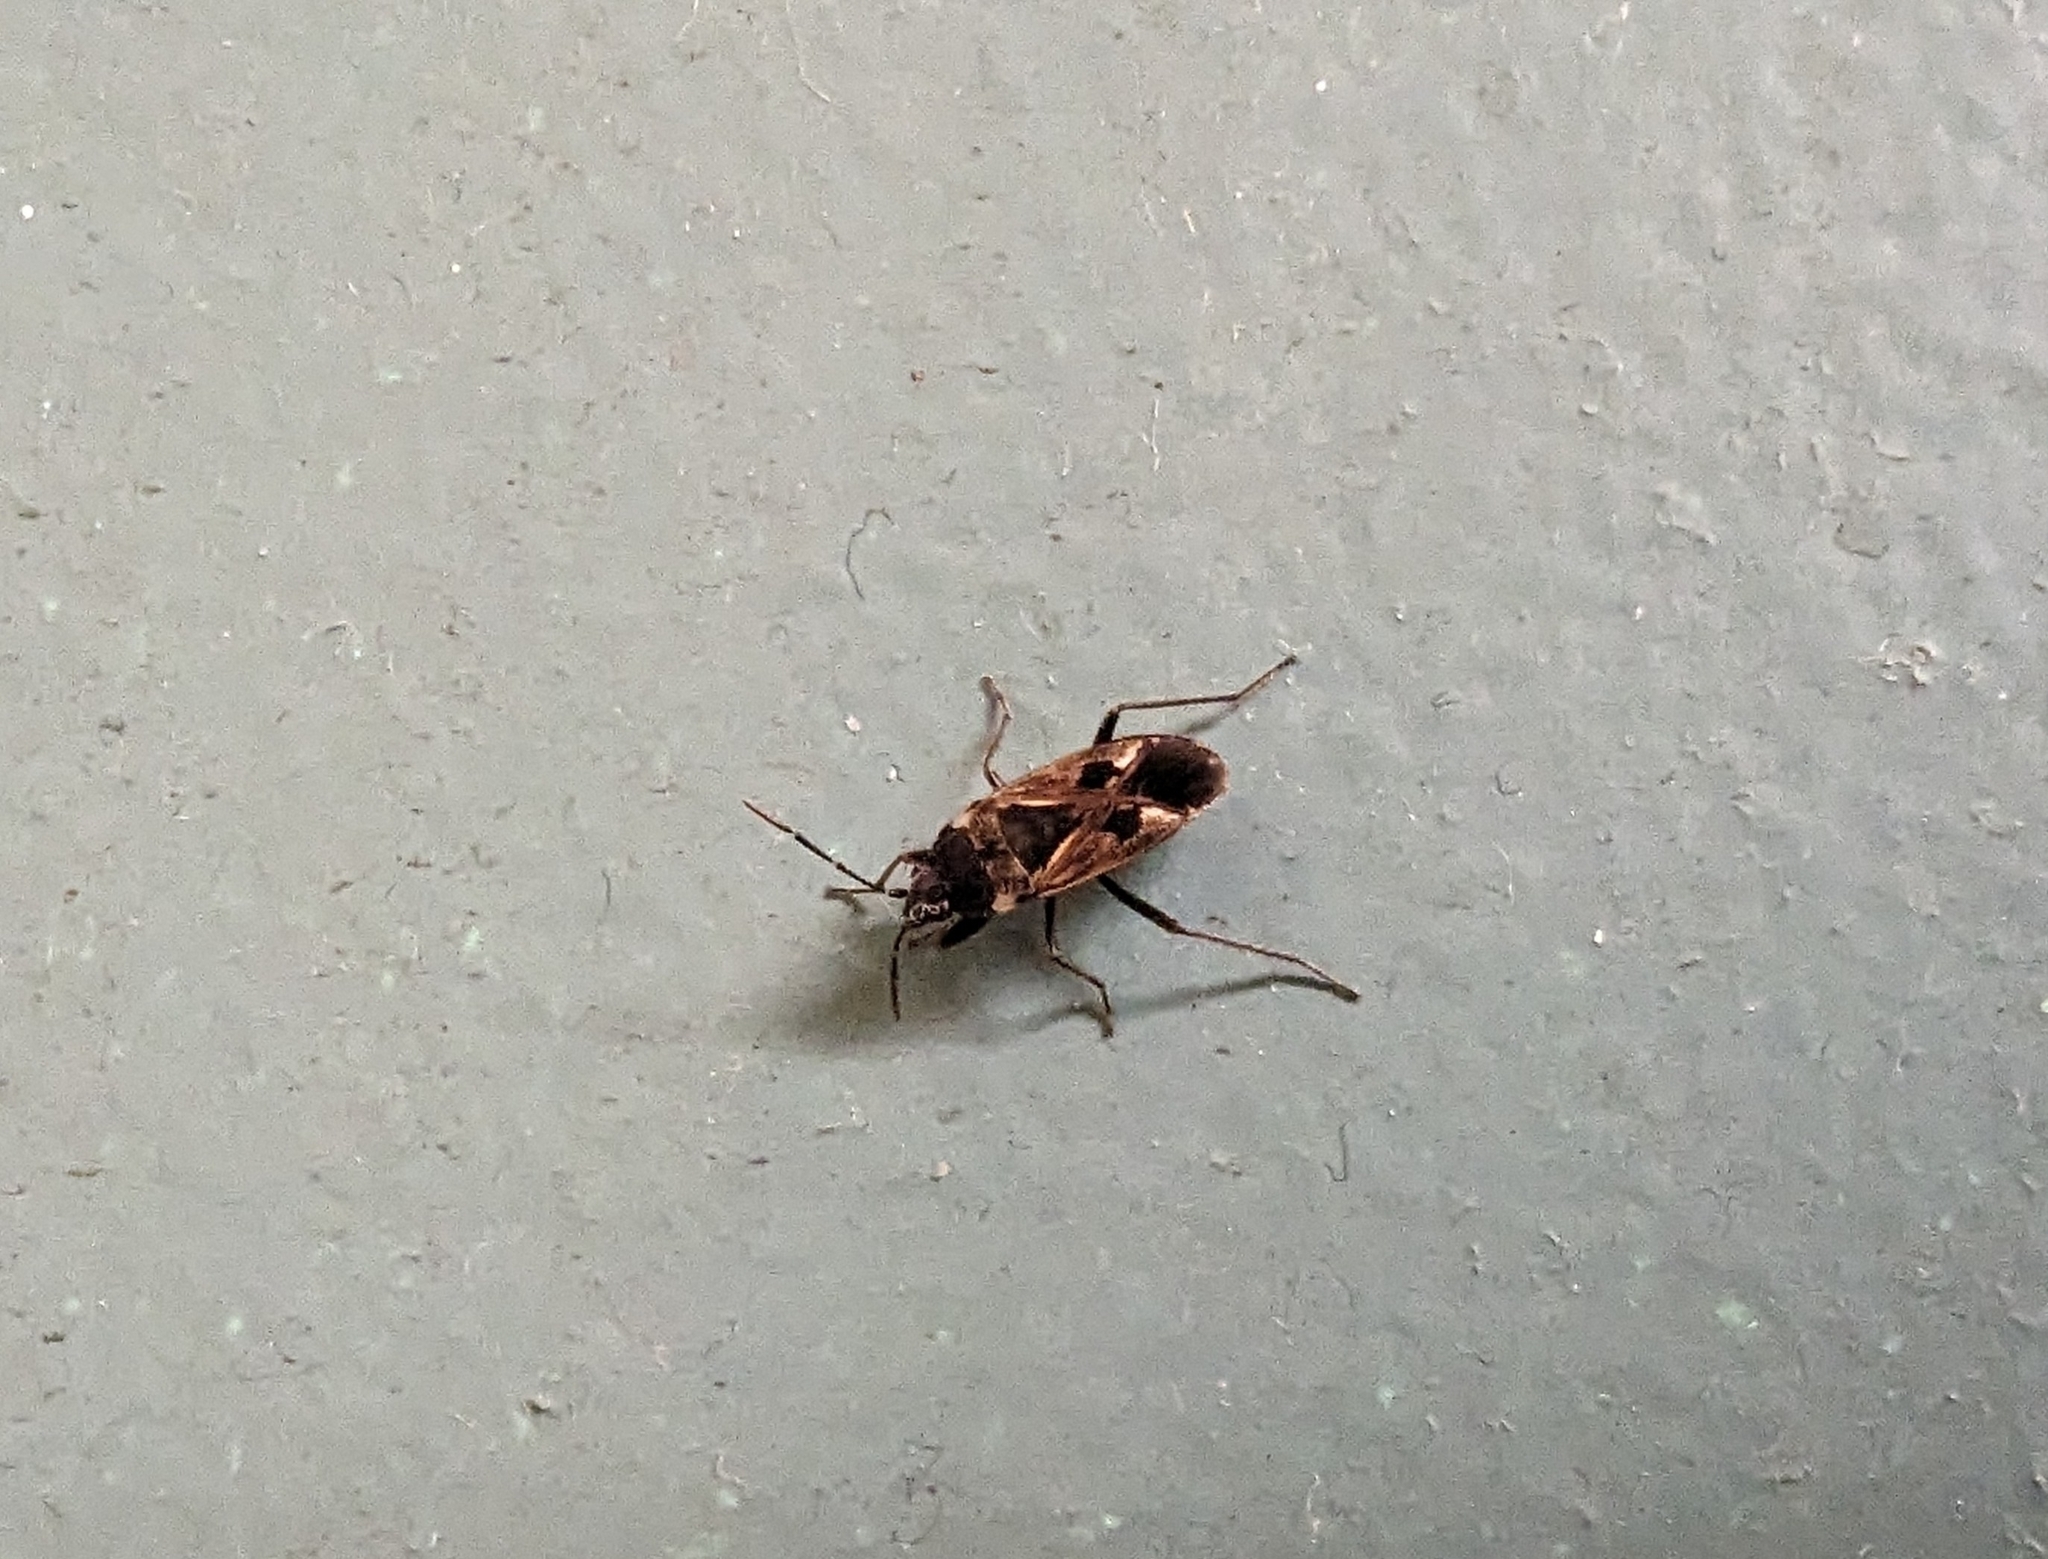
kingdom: Animalia
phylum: Arthropoda
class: Insecta
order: Hemiptera
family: Rhyparochromidae
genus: Rhyparochromus
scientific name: Rhyparochromus vulgaris
